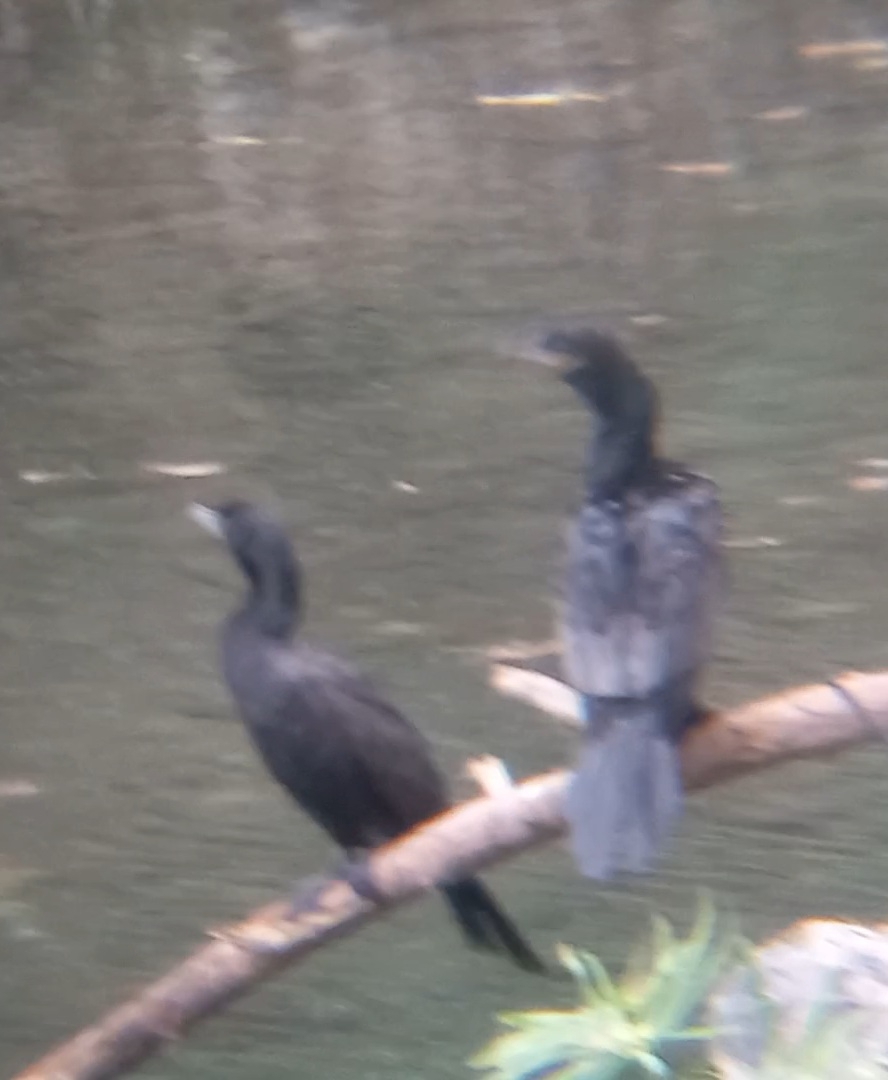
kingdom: Animalia
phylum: Chordata
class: Aves
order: Suliformes
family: Phalacrocoracidae
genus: Phalacrocorax
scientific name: Phalacrocorax brasilianus
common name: Neotropic cormorant
